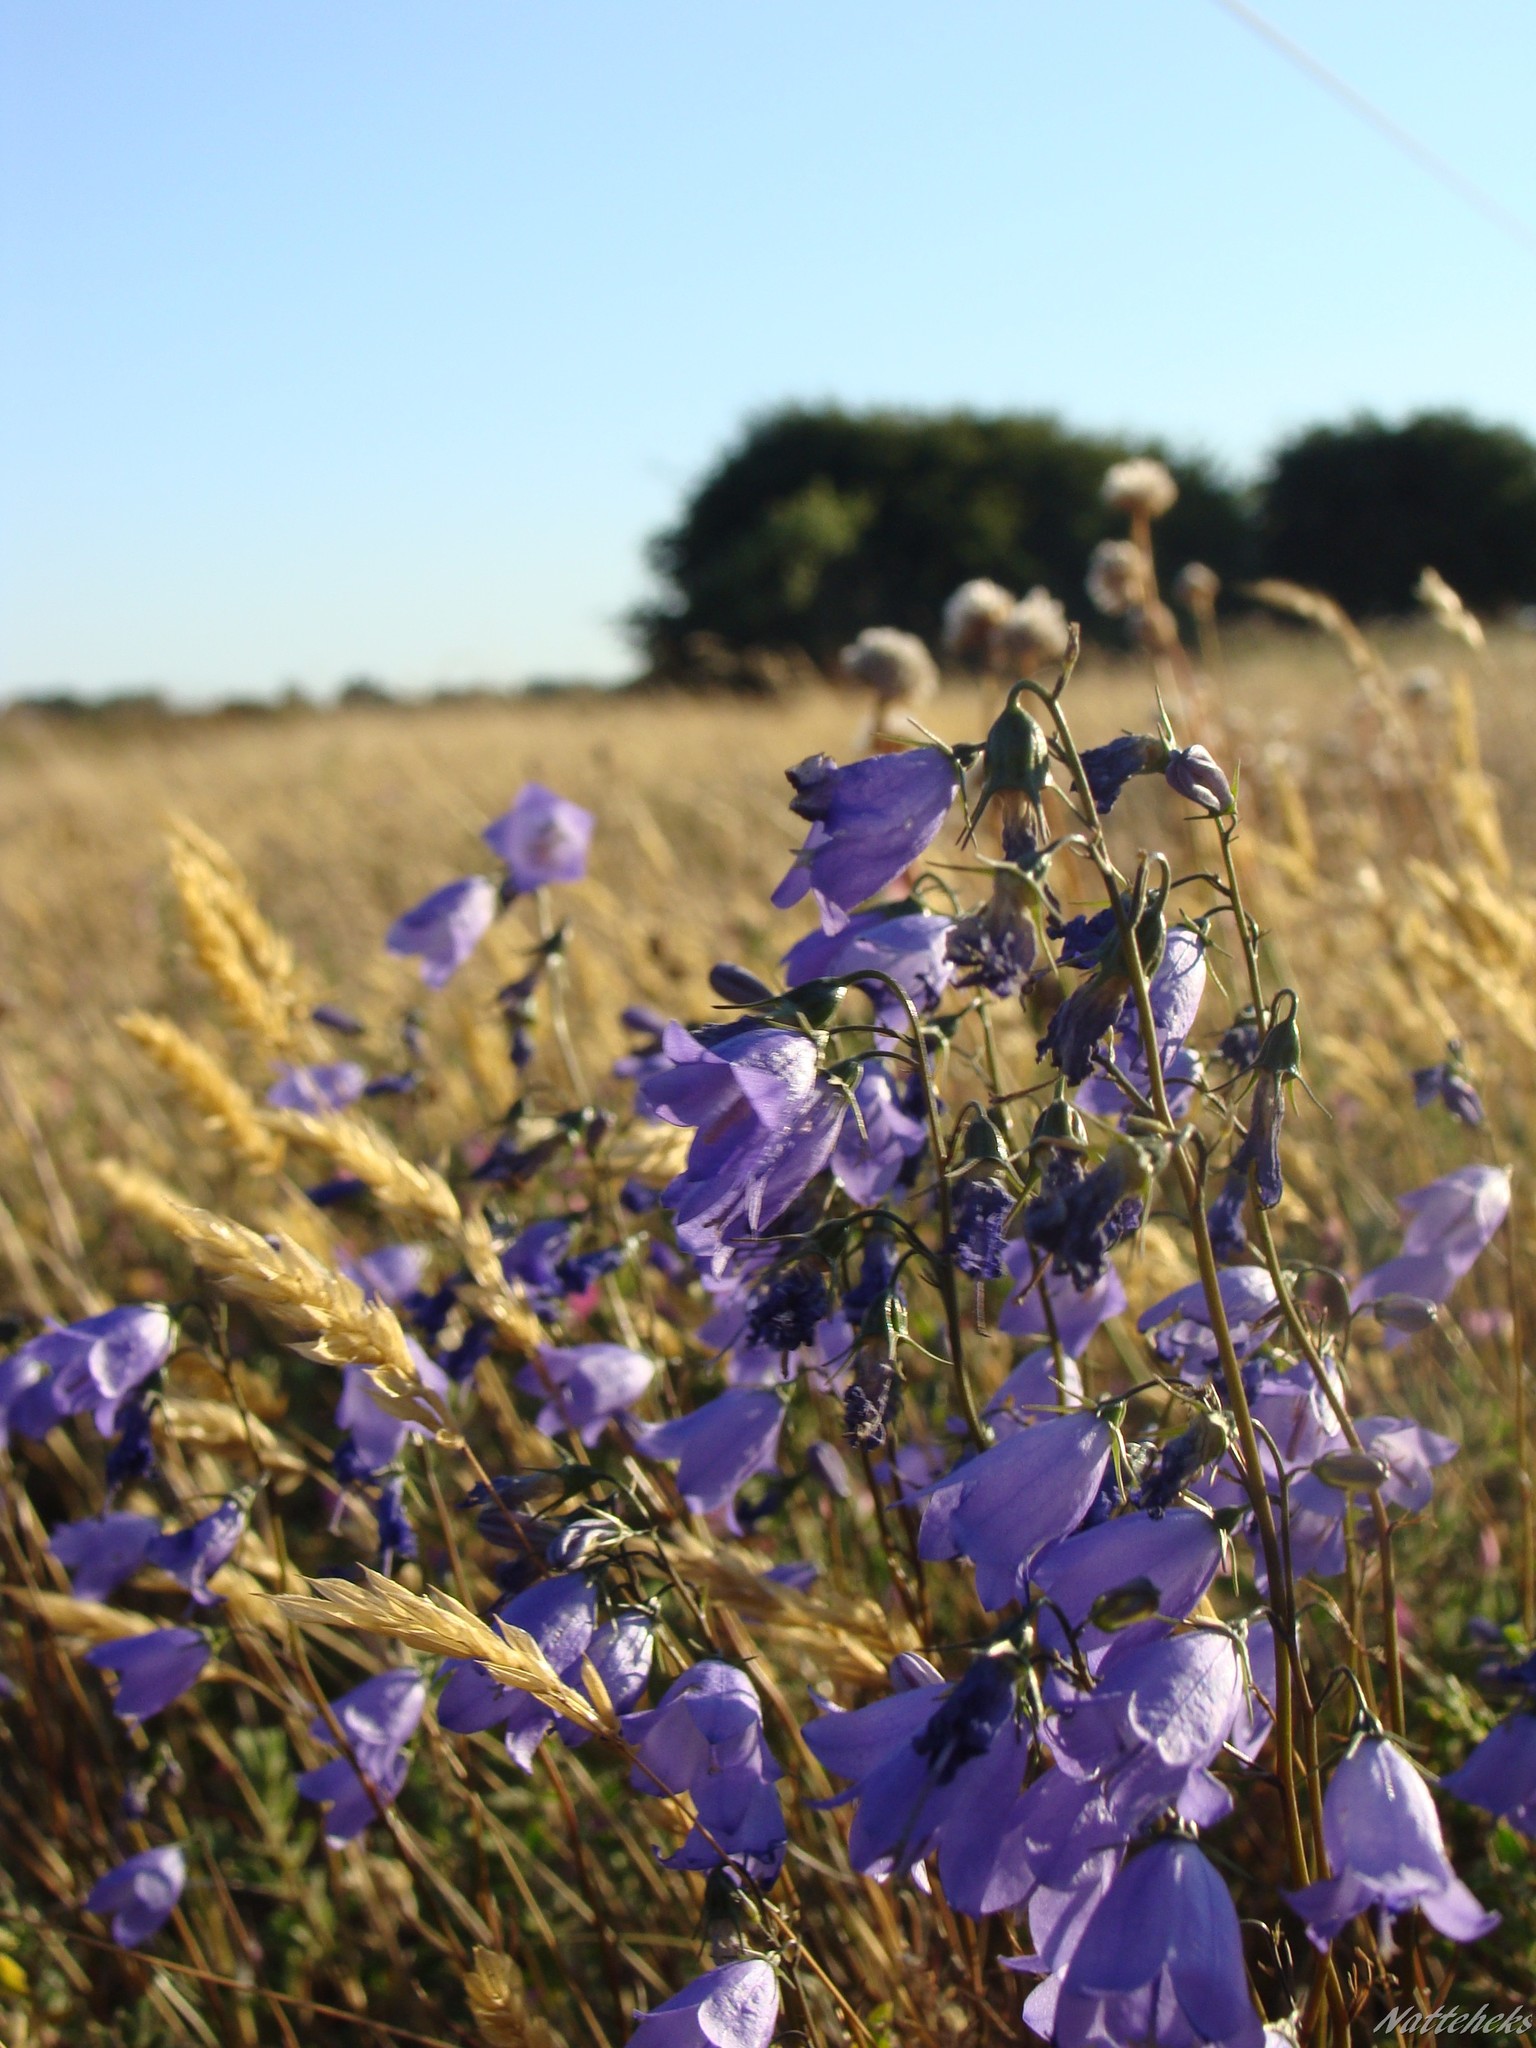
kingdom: Plantae
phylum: Tracheophyta
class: Magnoliopsida
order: Asterales
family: Campanulaceae
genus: Campanula
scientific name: Campanula rotundifolia
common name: Harebell
